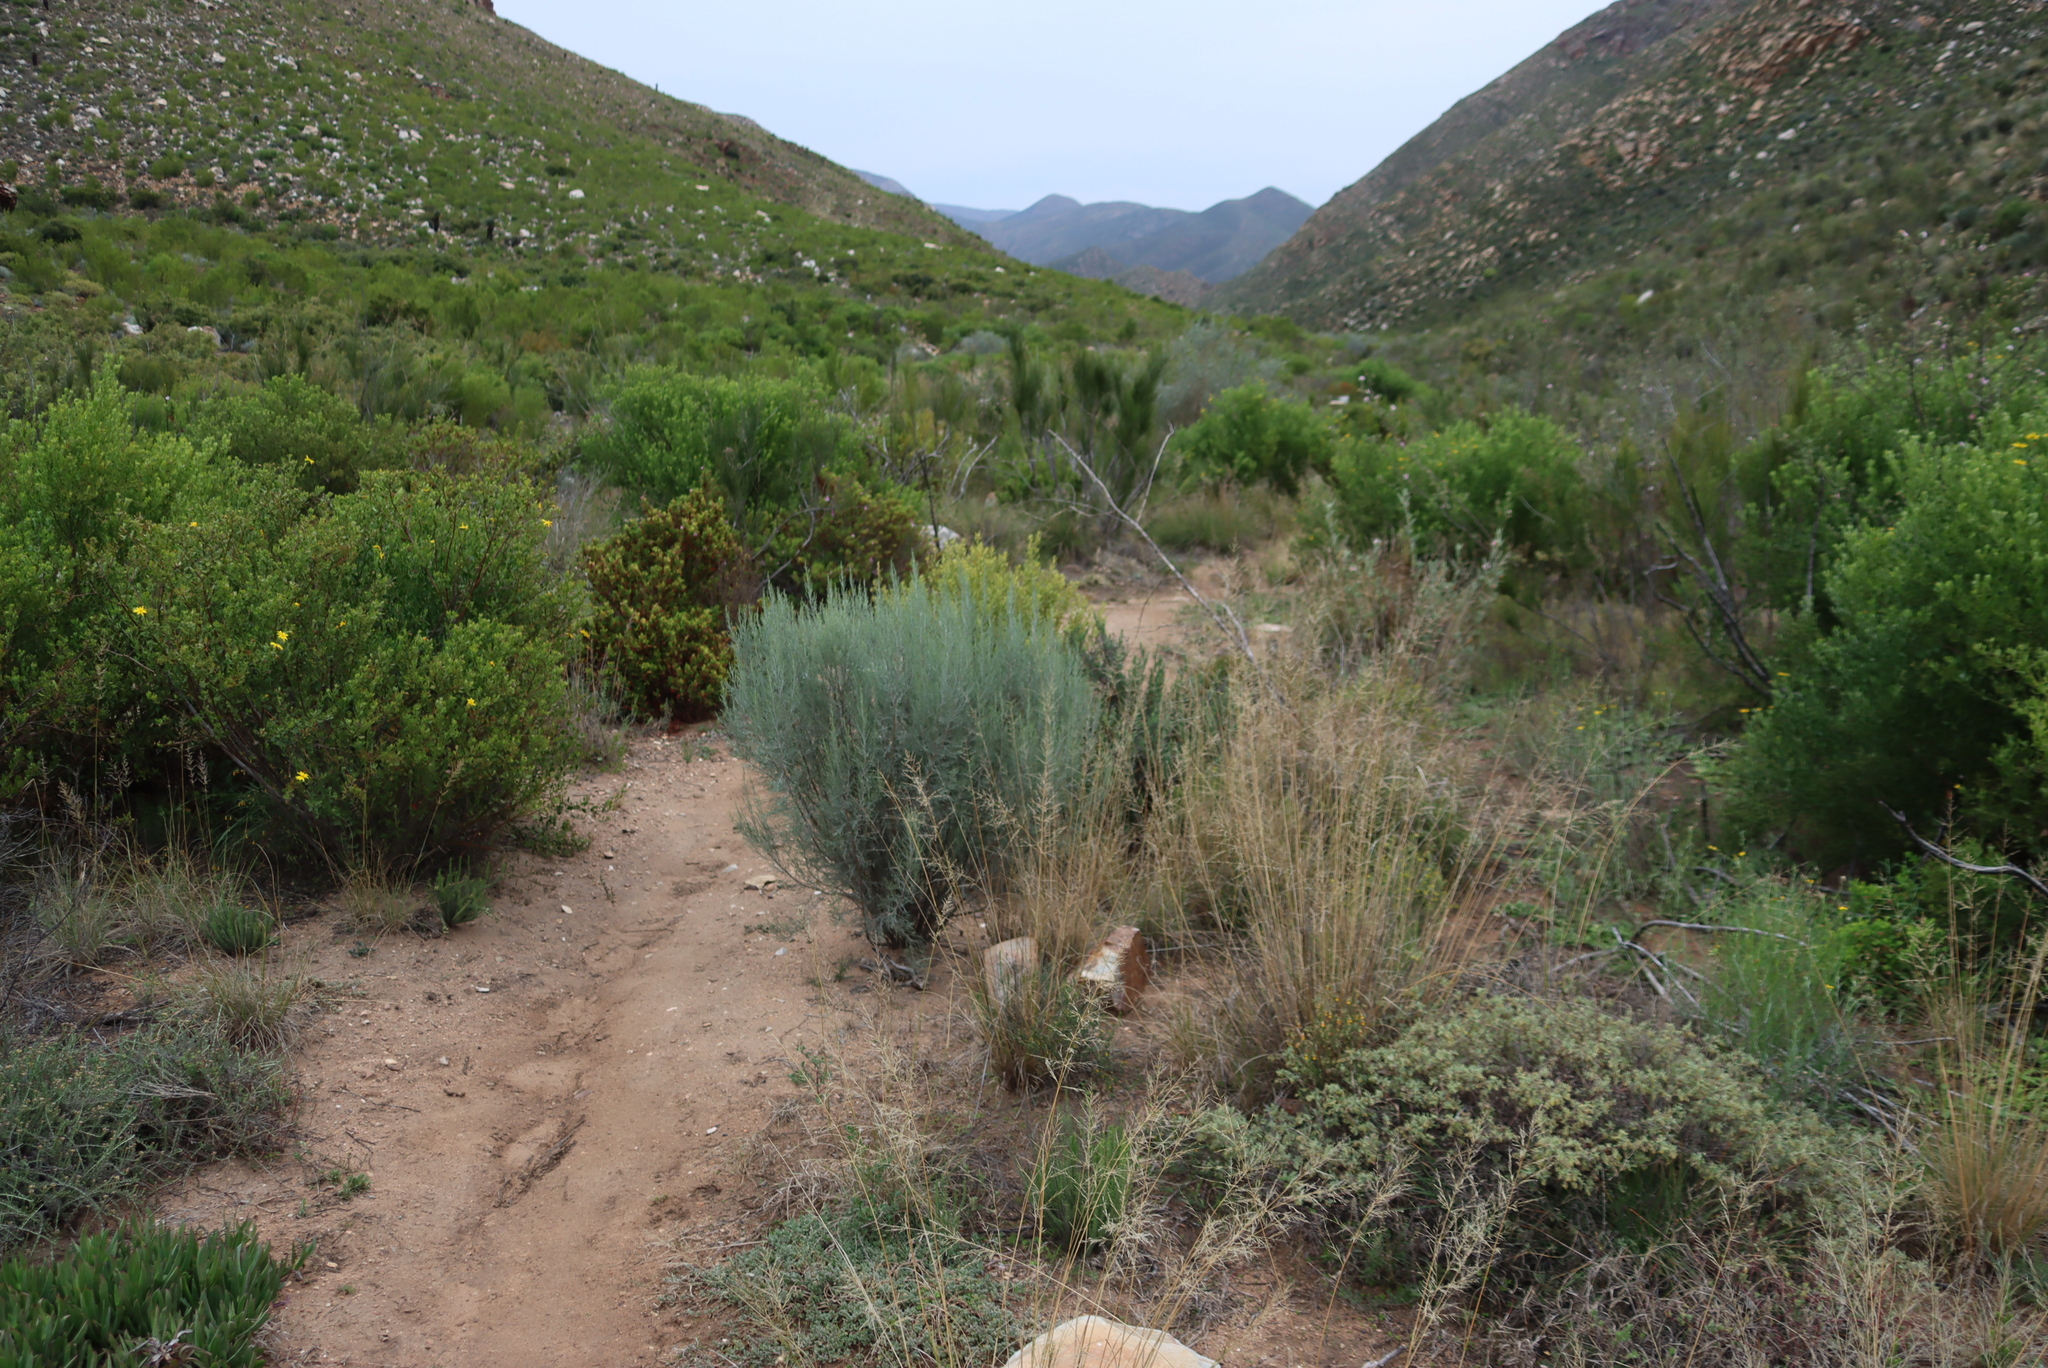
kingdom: Plantae
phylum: Tracheophyta
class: Magnoliopsida
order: Asterales
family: Asteraceae
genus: Dicerothamnus
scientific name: Dicerothamnus rhinocerotis
